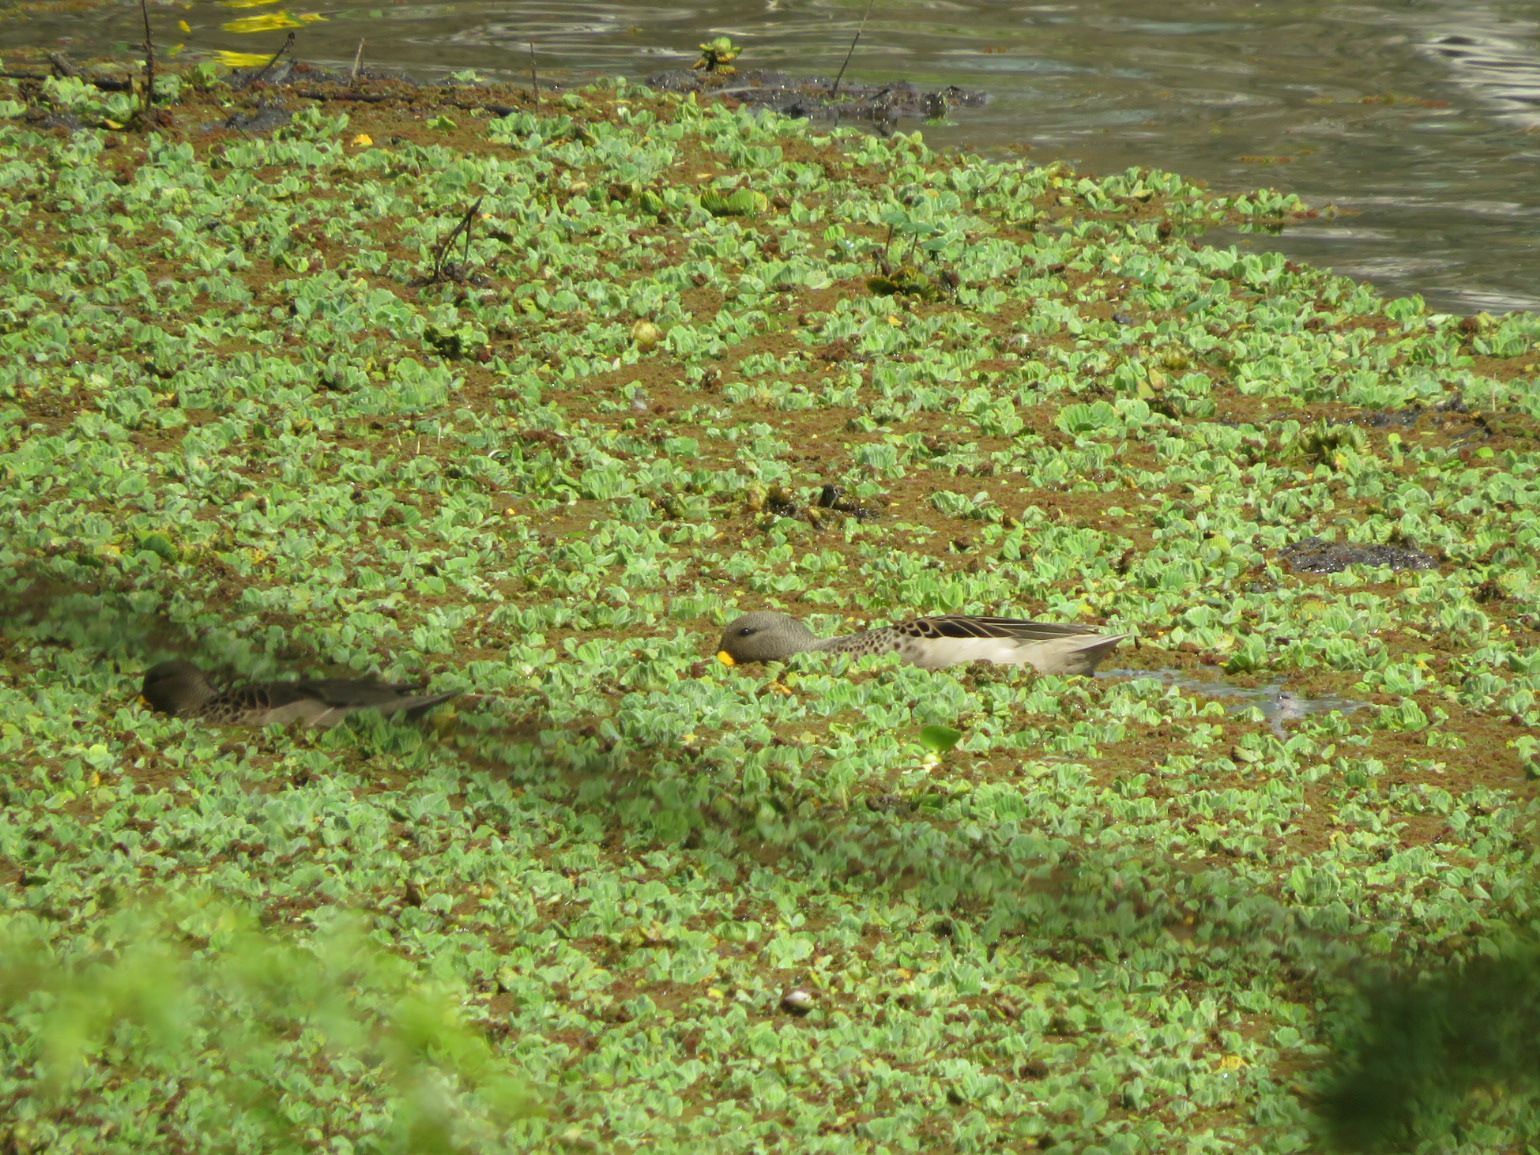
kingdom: Animalia
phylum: Chordata
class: Aves
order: Anseriformes
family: Anatidae
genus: Anas
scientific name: Anas flavirostris
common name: Yellow-billed teal
